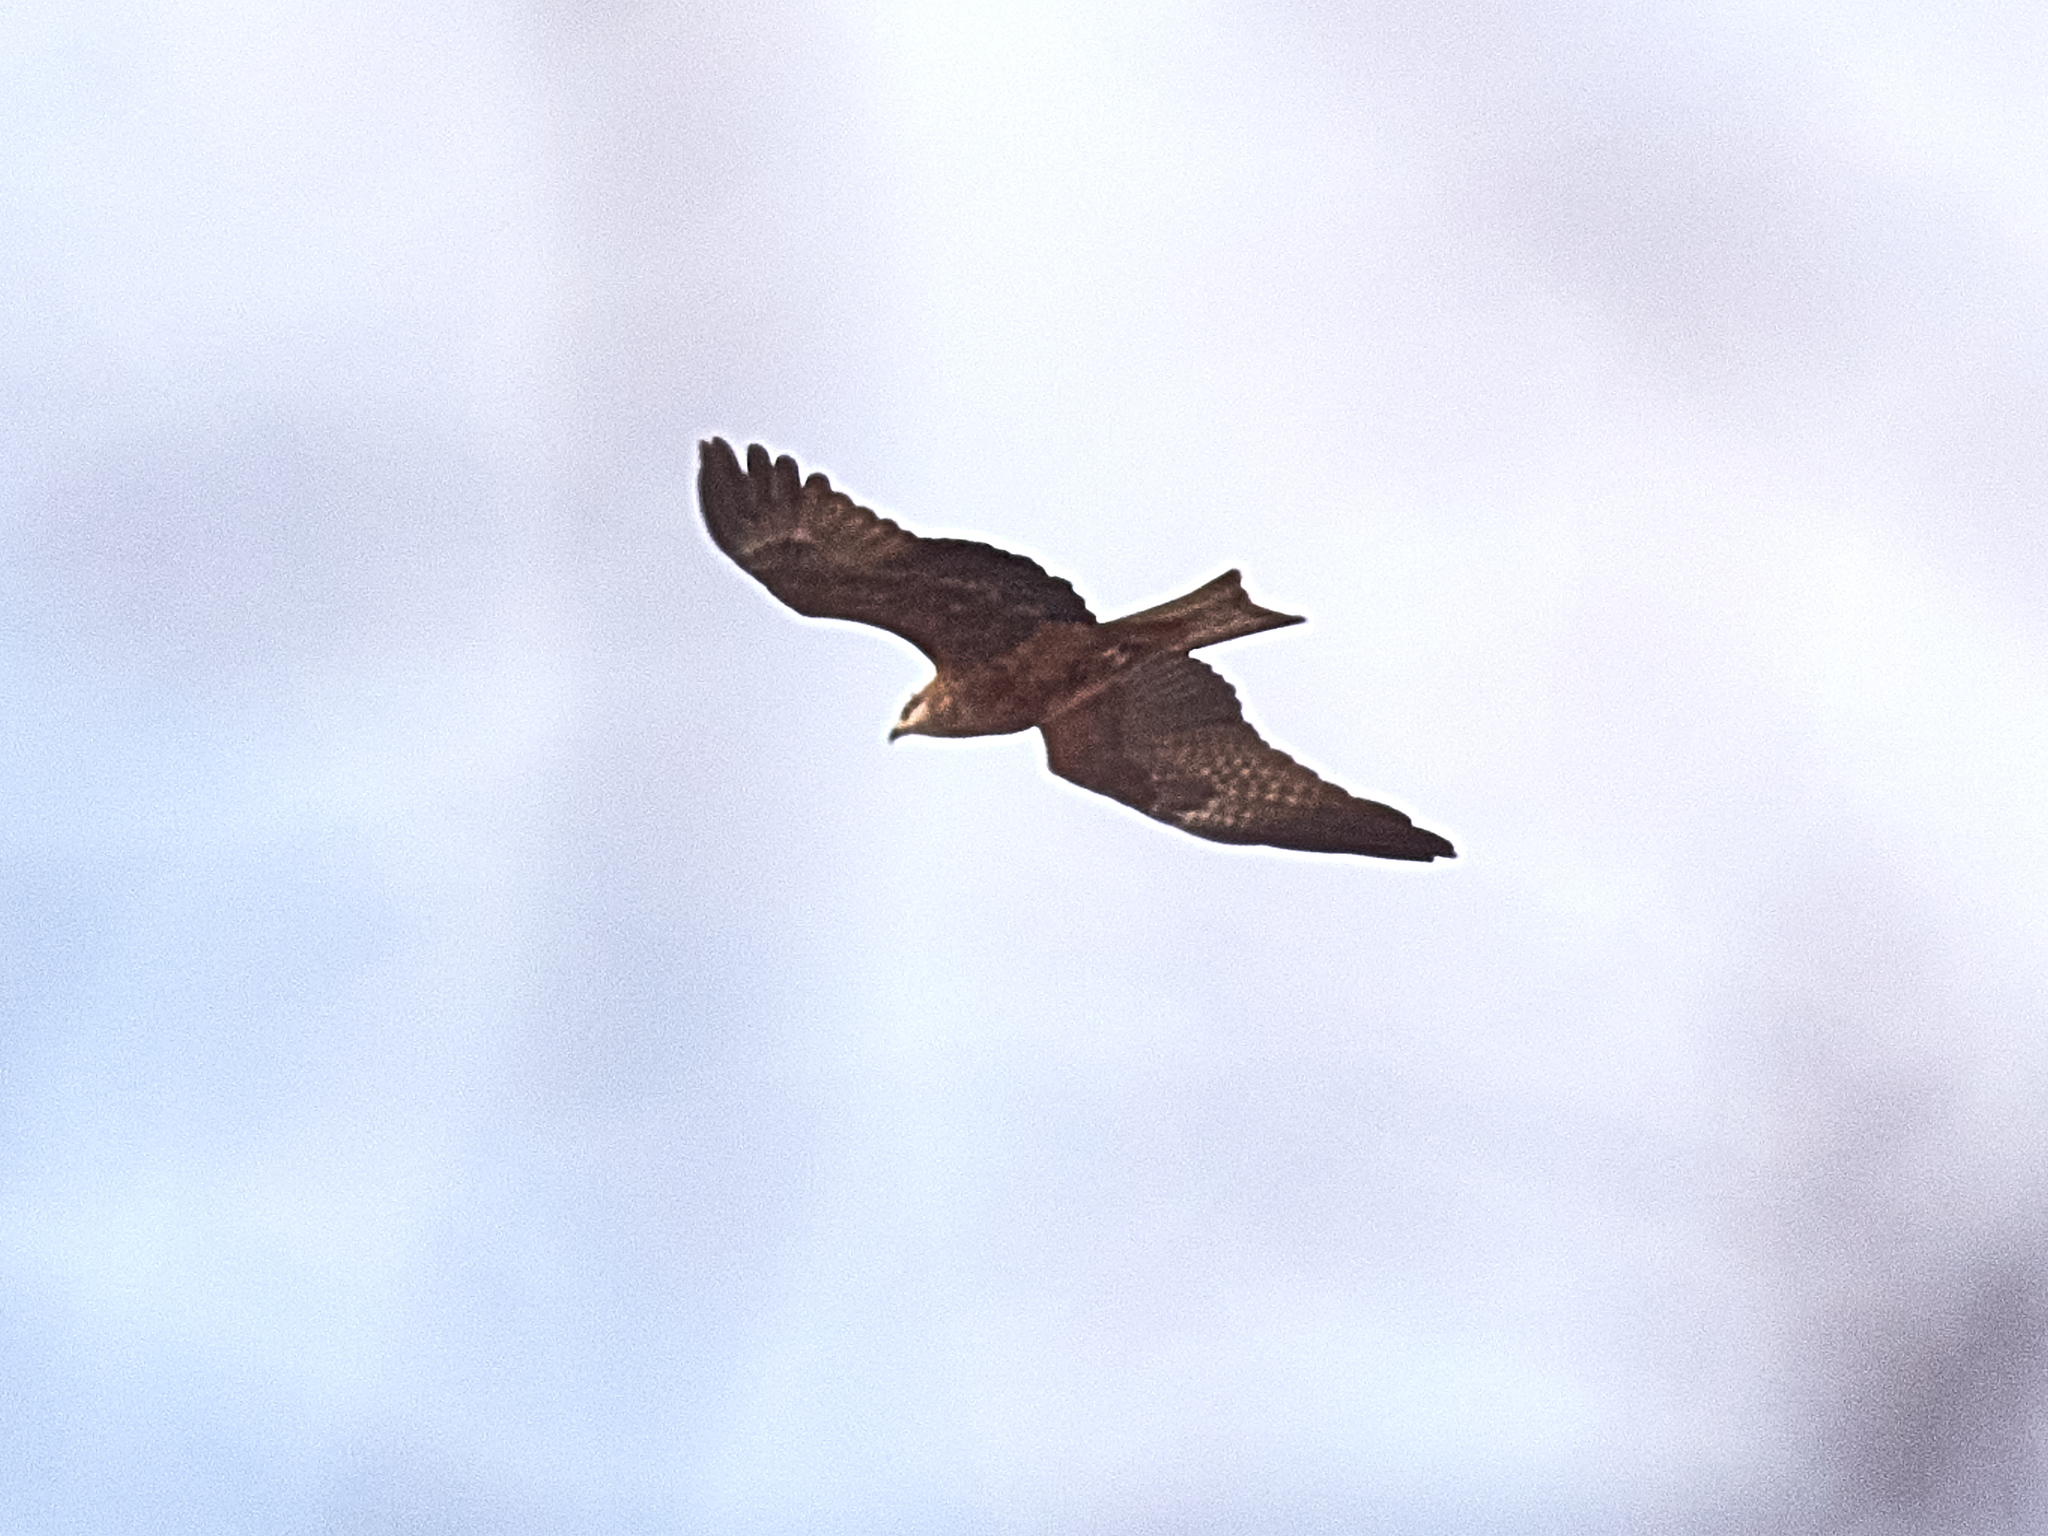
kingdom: Animalia
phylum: Chordata
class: Aves
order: Accipitriformes
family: Accipitridae
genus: Milvus
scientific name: Milvus migrans
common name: Black kite
